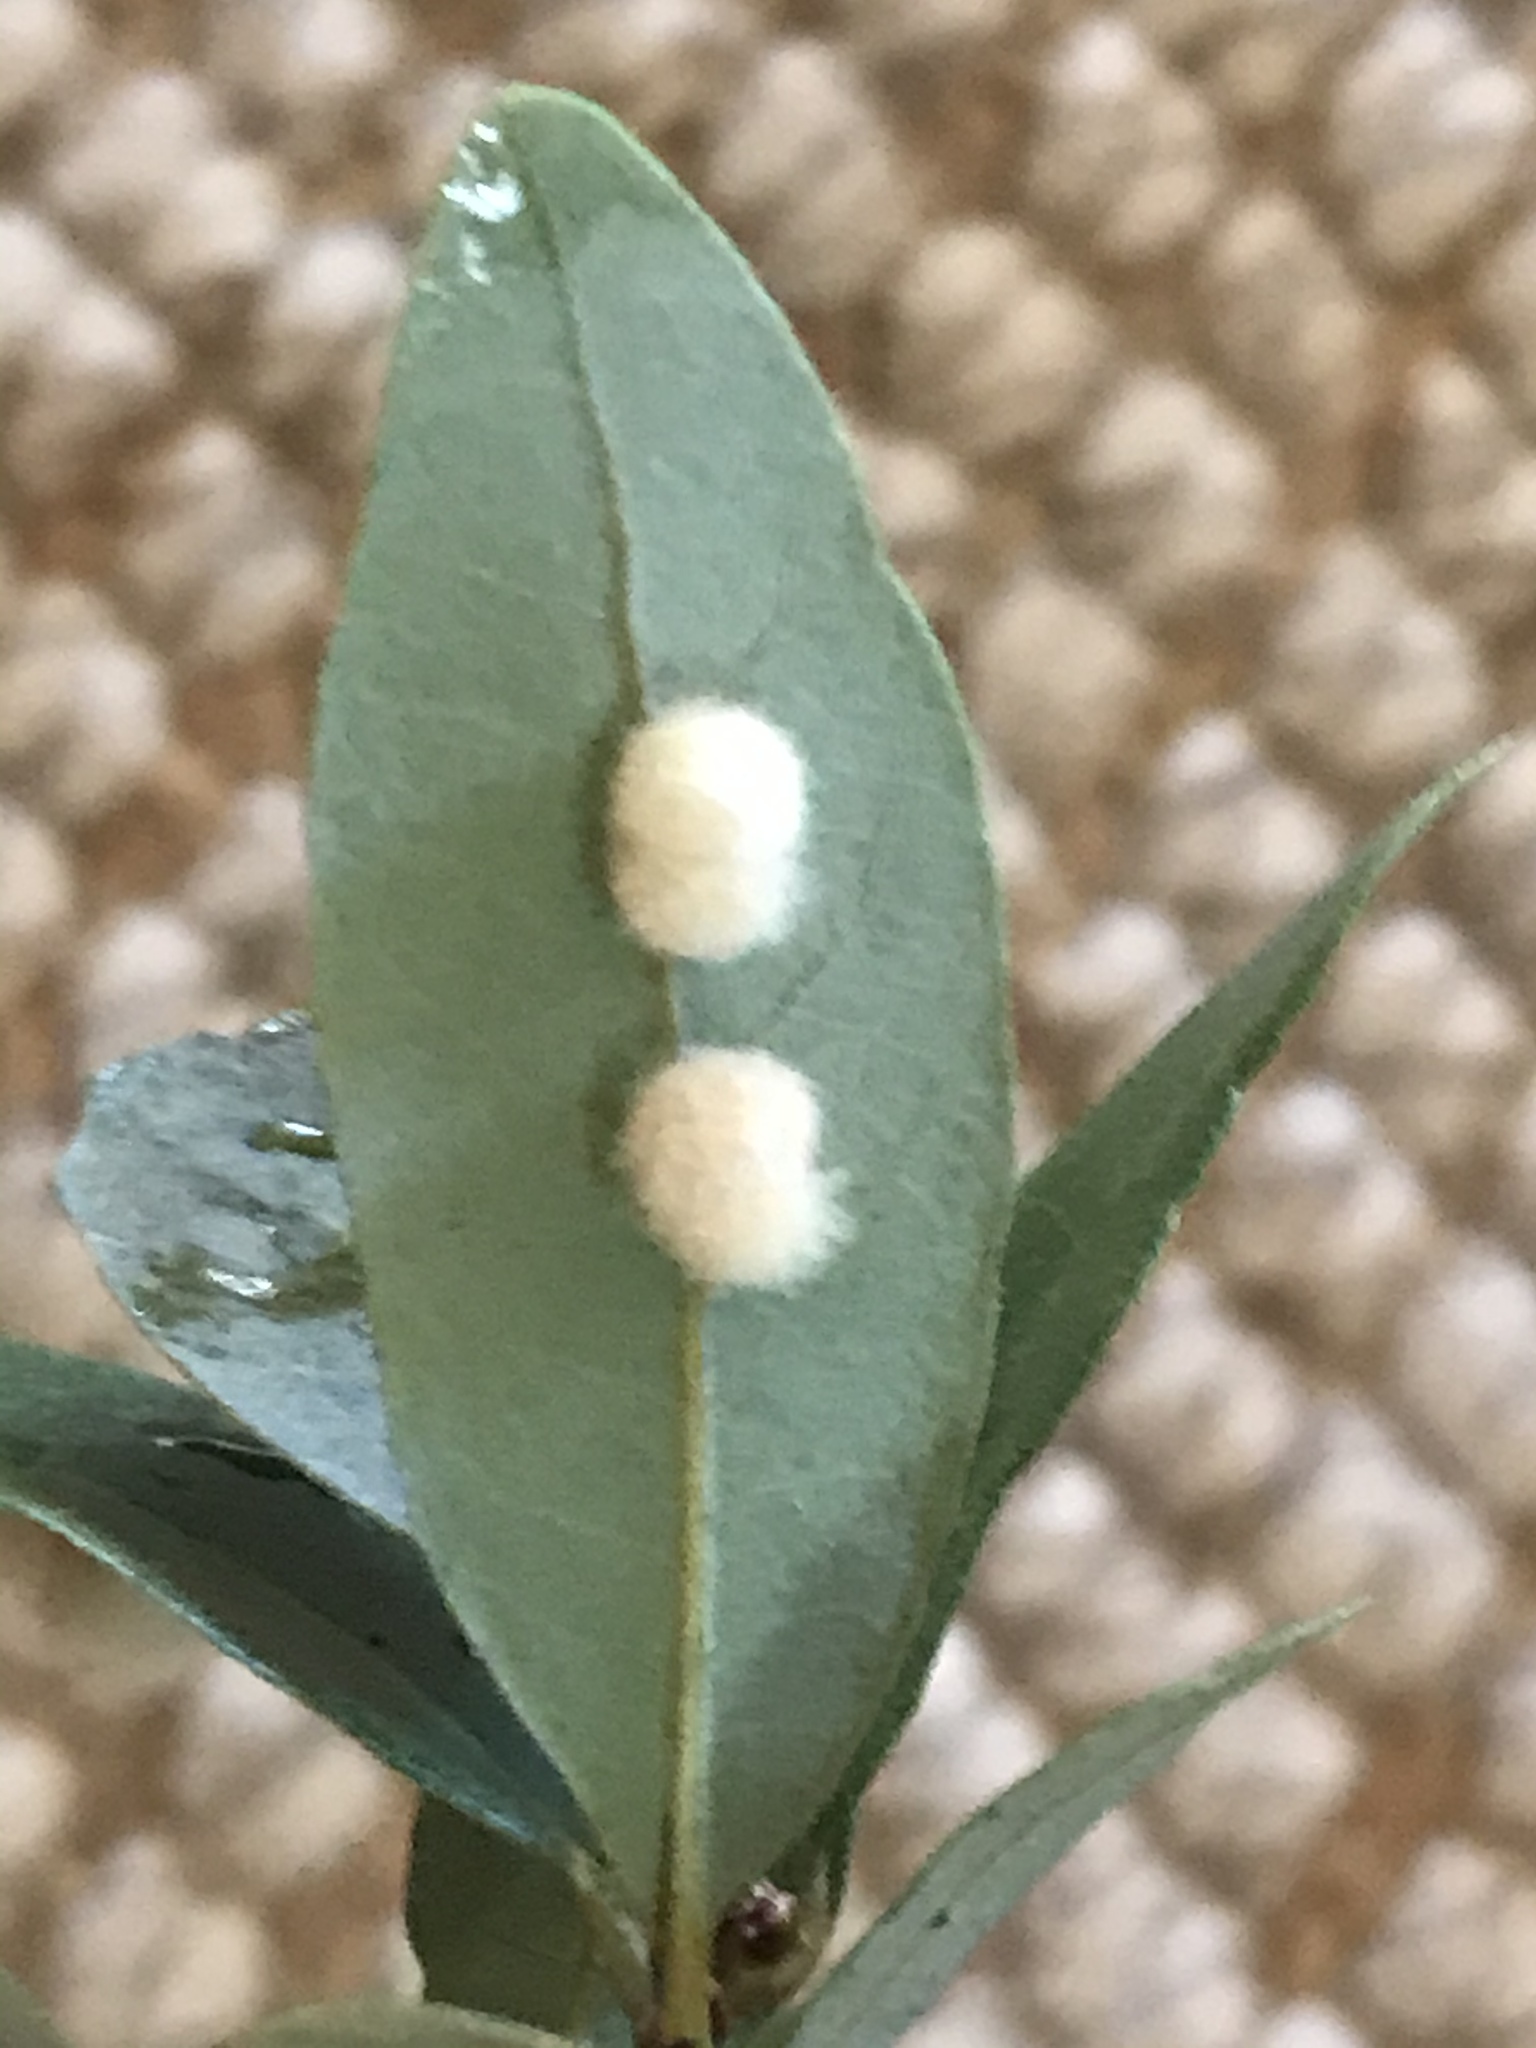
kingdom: Animalia
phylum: Arthropoda
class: Insecta
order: Hymenoptera
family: Cynipidae
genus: Andricus
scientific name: Andricus Druon quercuslanigerum
